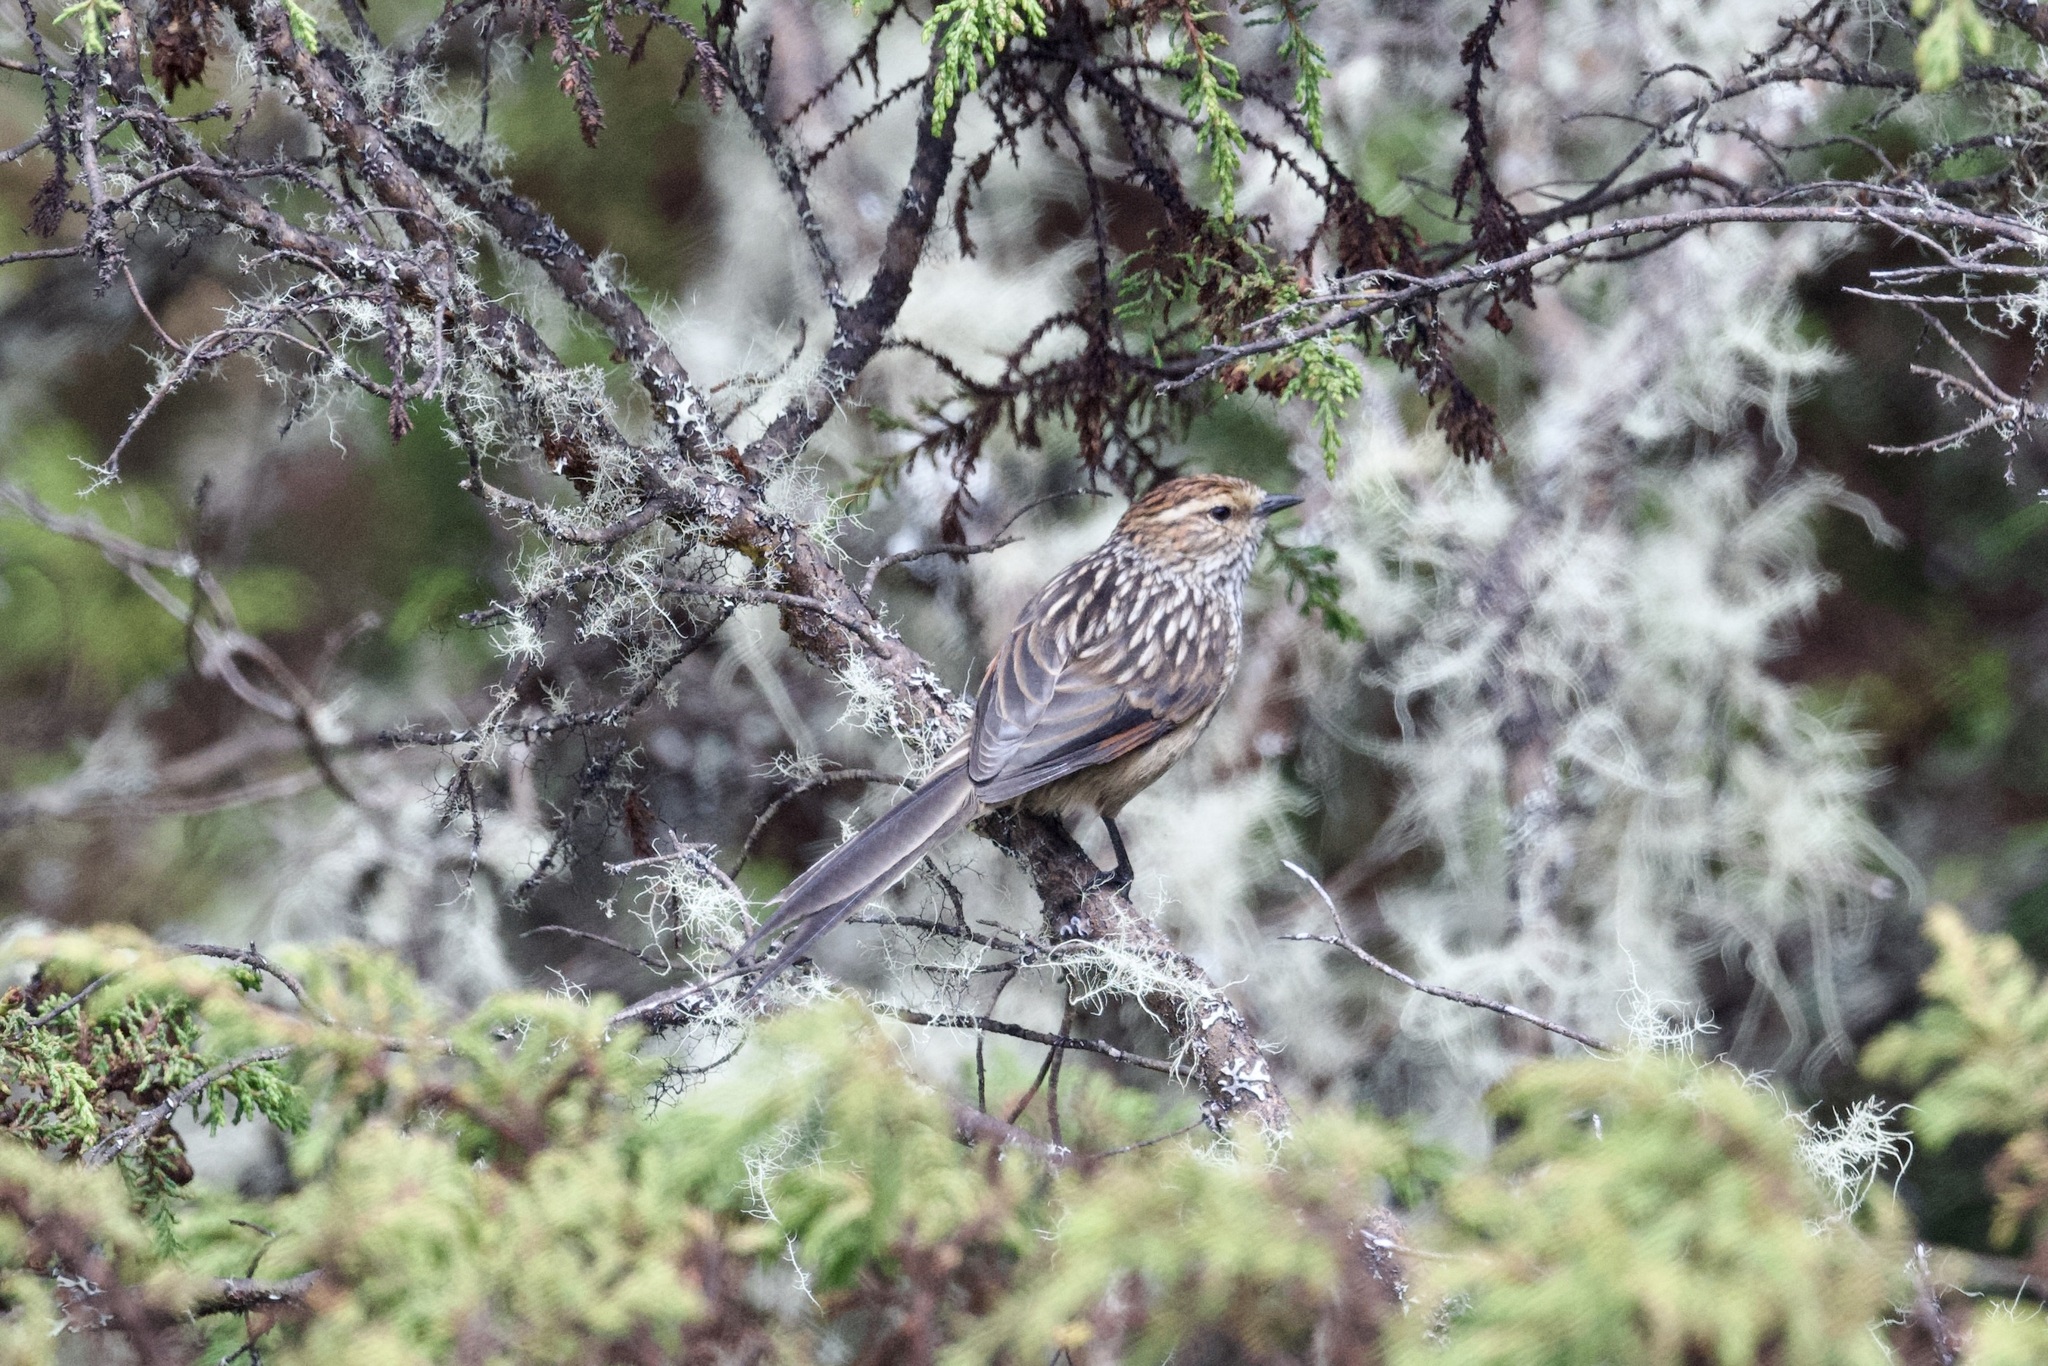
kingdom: Animalia
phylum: Chordata
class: Aves
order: Passeriformes
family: Furnariidae
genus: Leptasthenura
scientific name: Leptasthenura andicola
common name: Andean tit-spinetail
